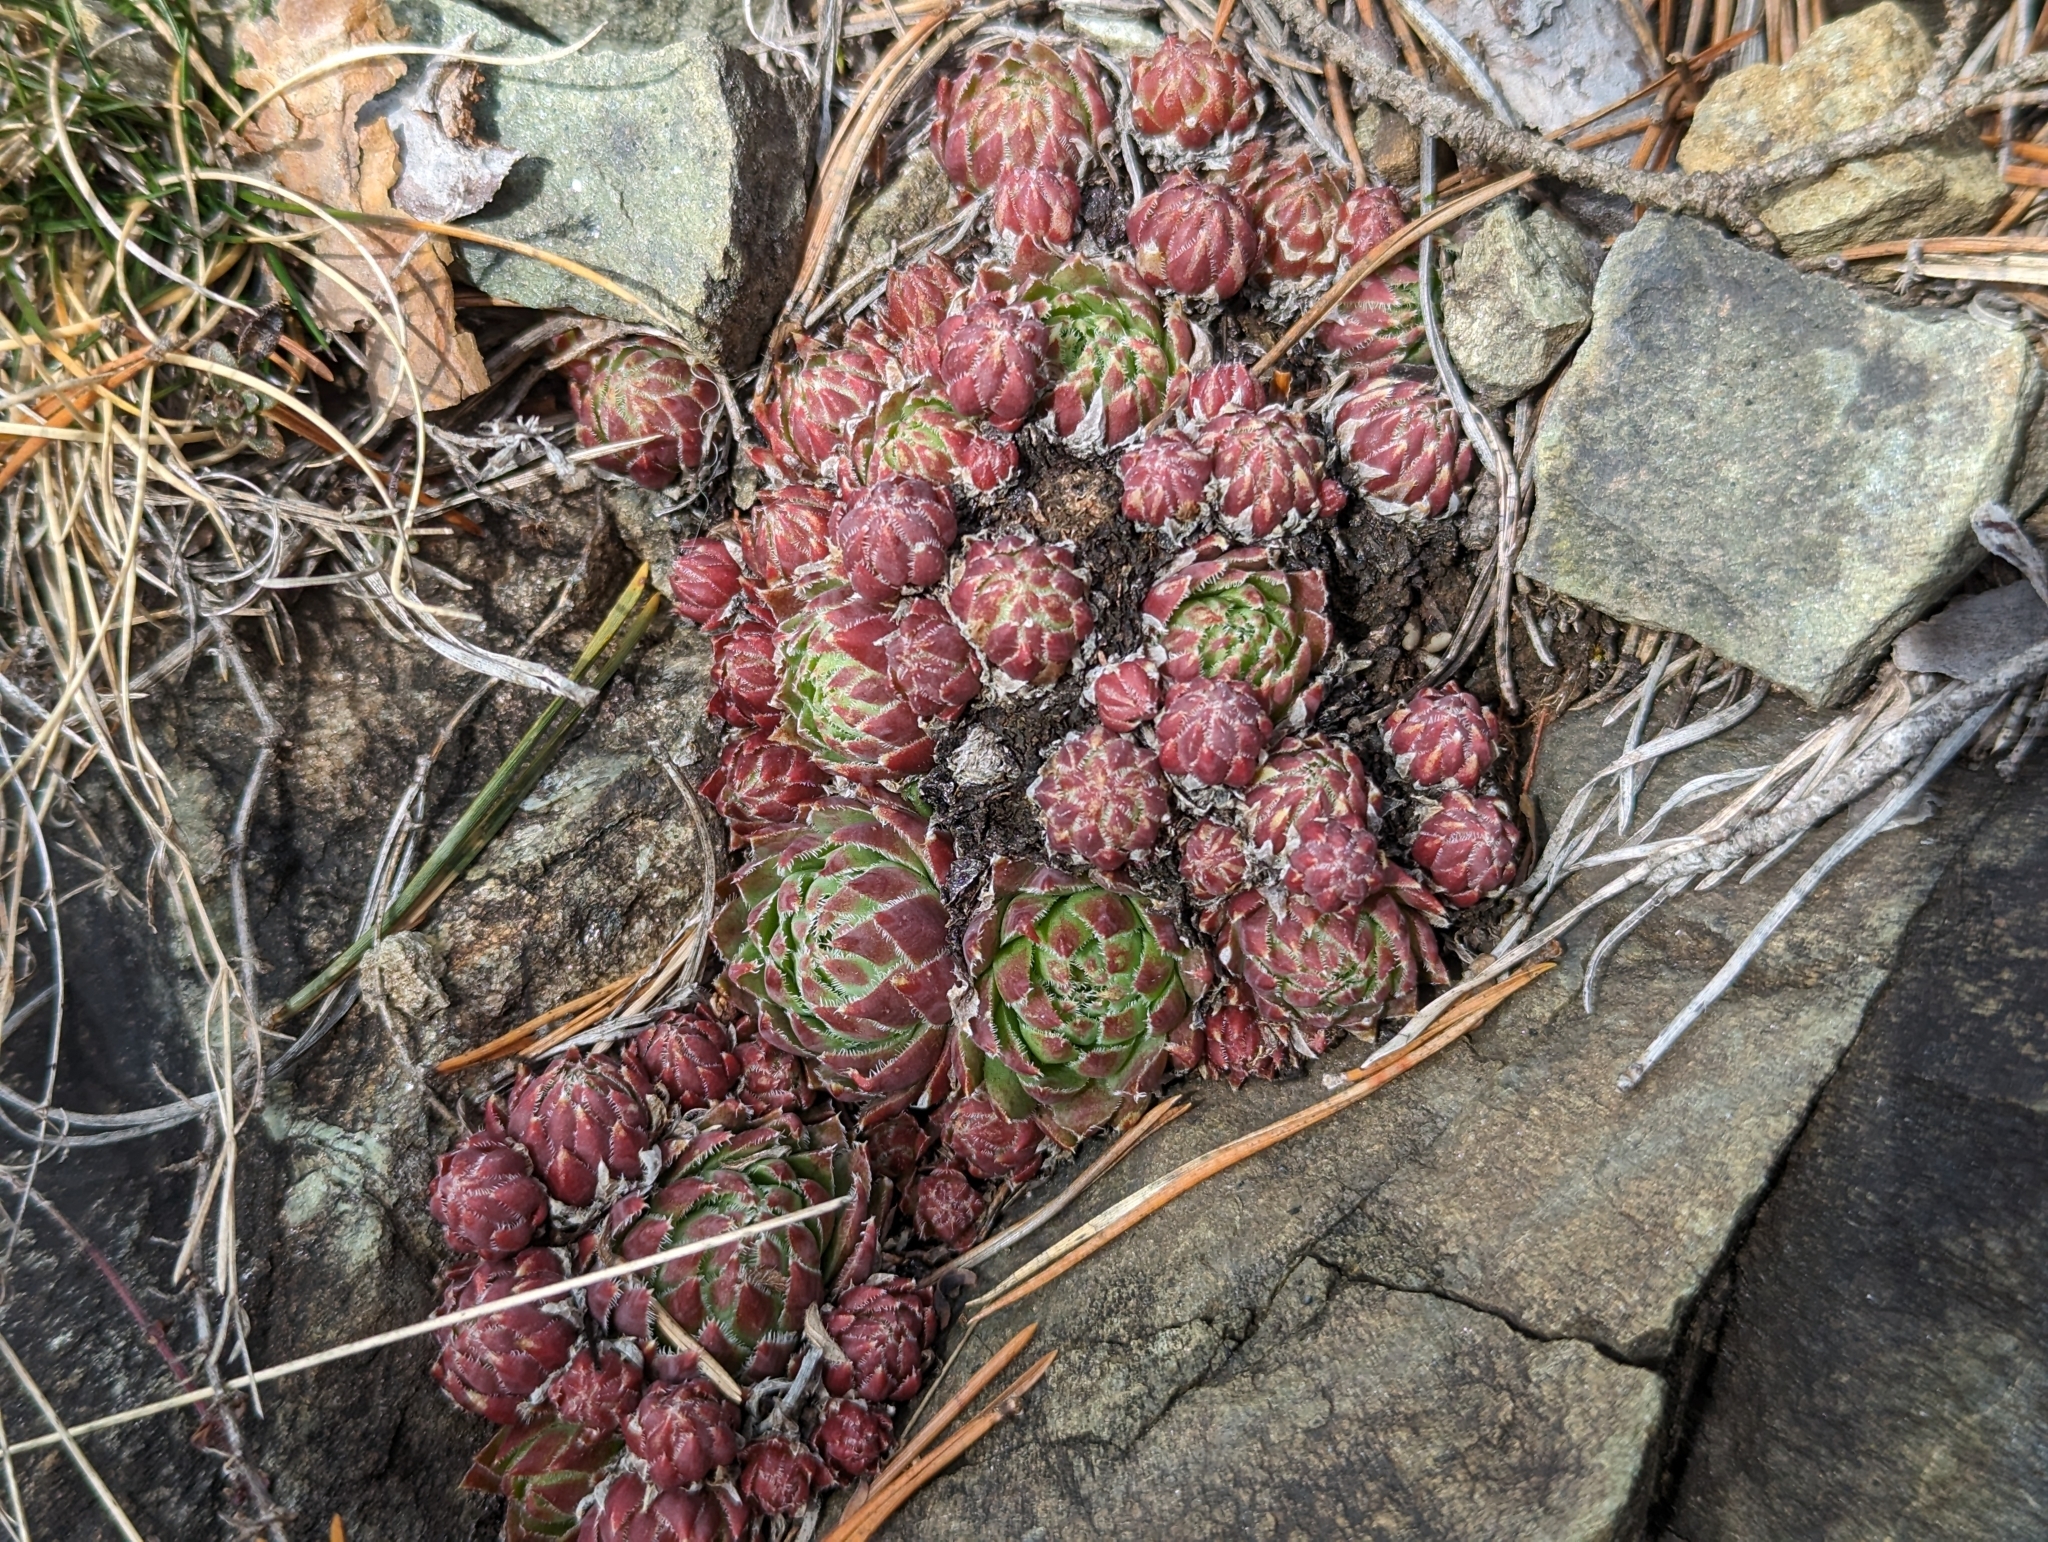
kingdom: Plantae
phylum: Tracheophyta
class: Magnoliopsida
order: Saxifragales
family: Crassulaceae
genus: Sempervivum
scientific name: Sempervivum globiferum
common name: Rolling hen-and-chicks
